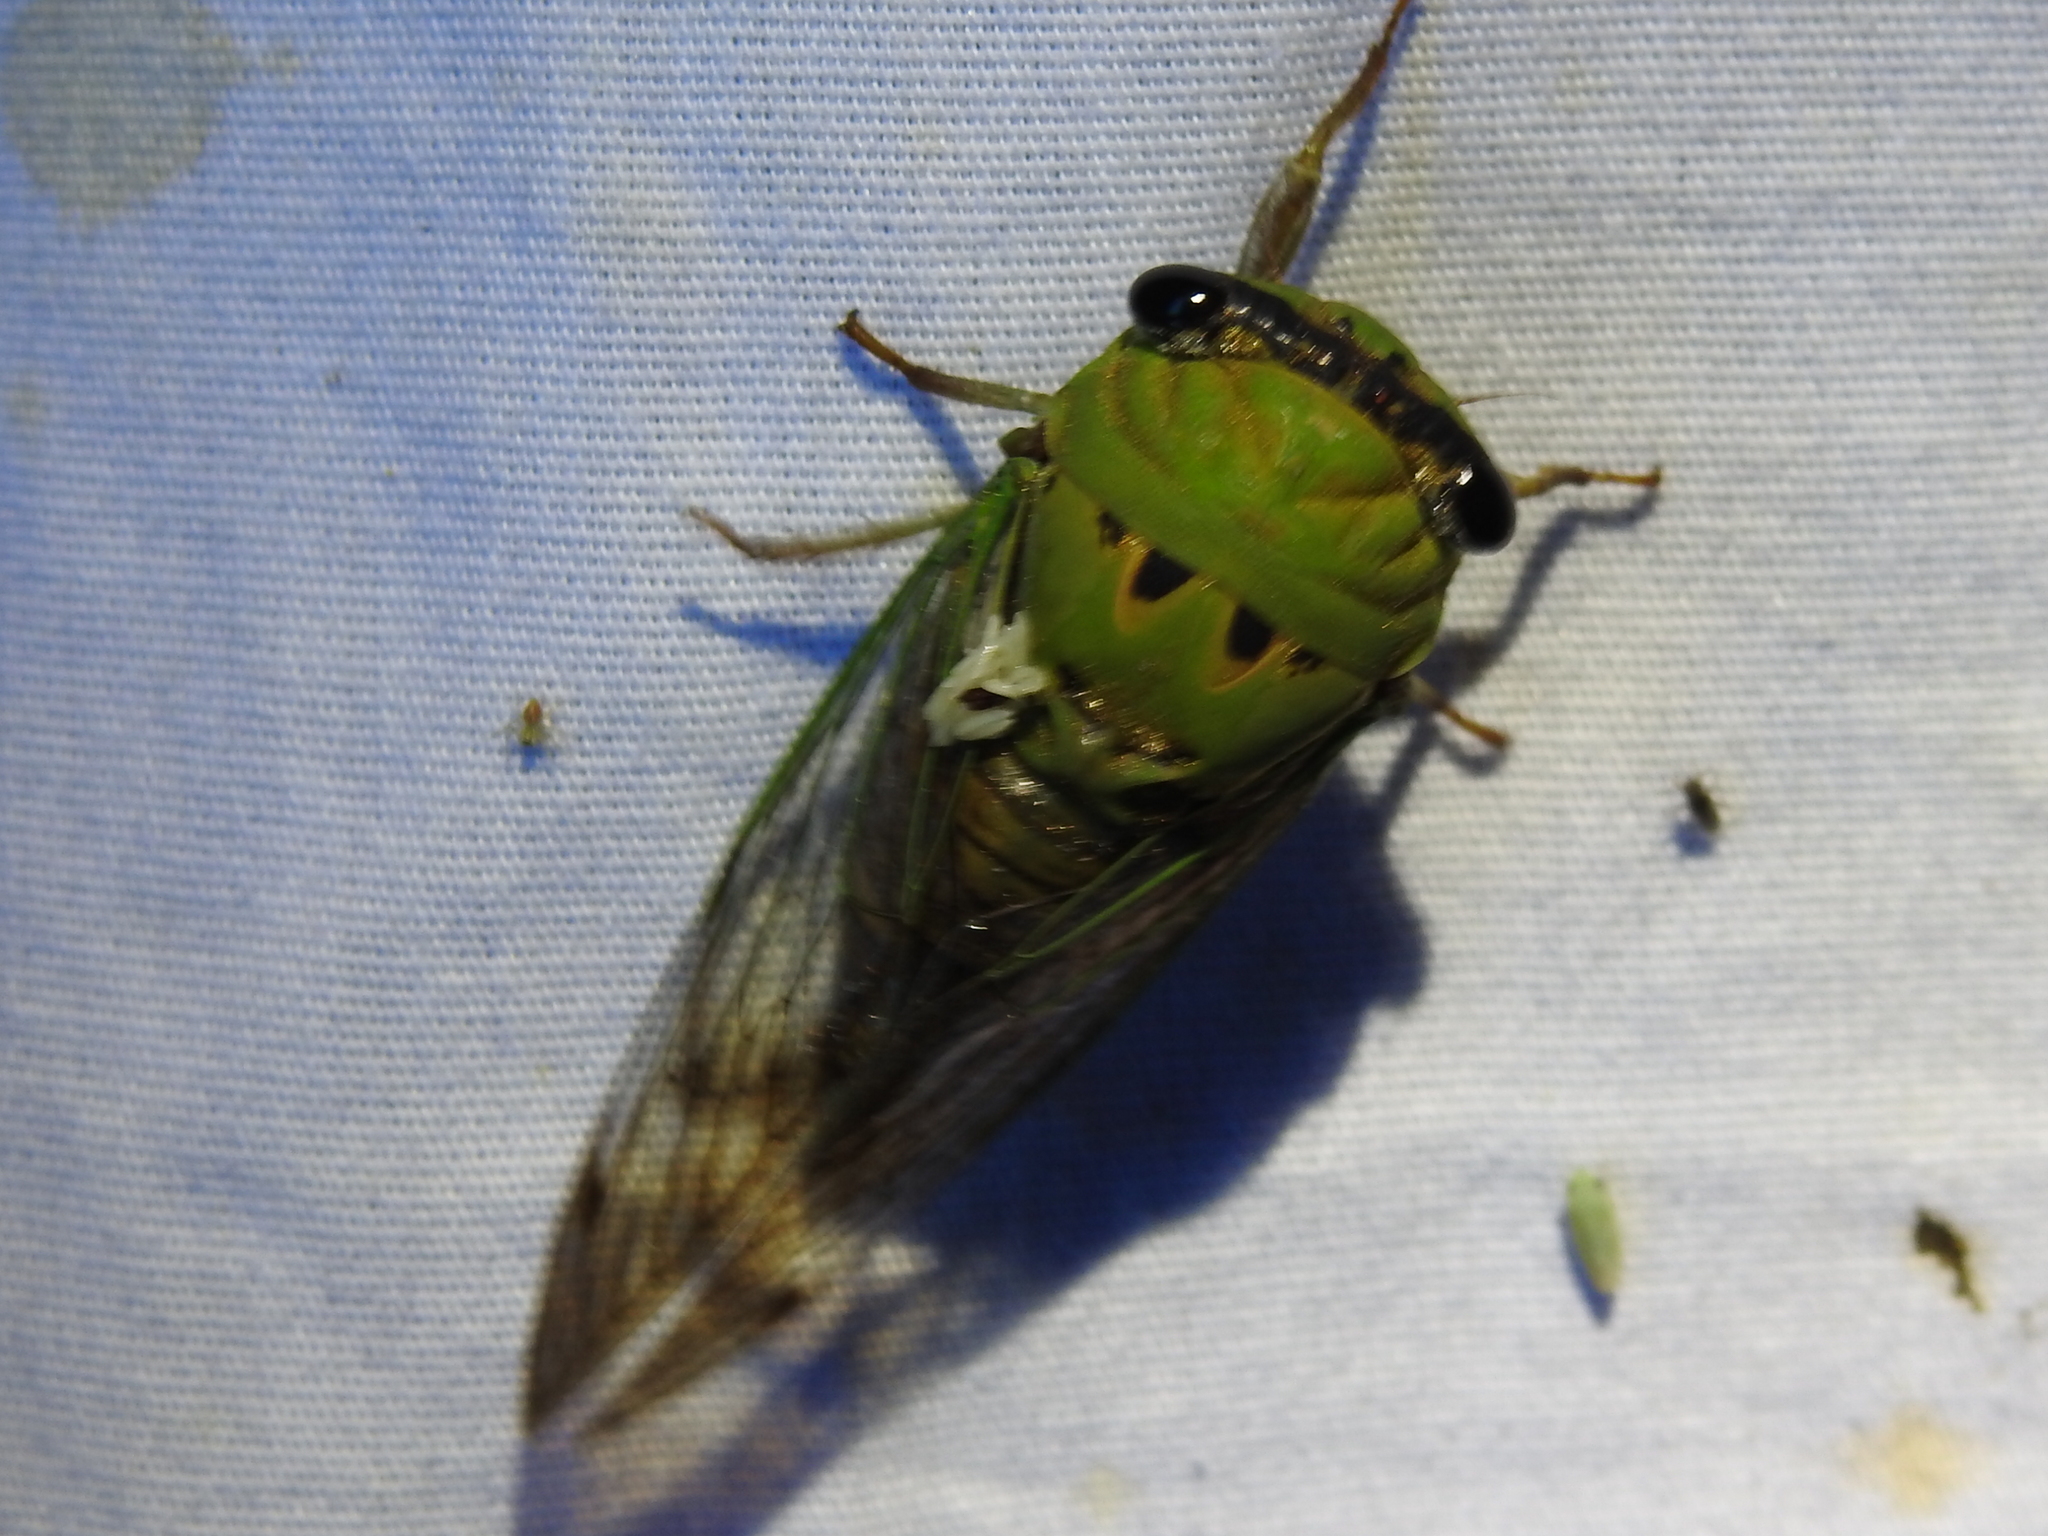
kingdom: Animalia
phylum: Arthropoda
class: Insecta
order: Hemiptera
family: Cicadidae
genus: Neotibicen
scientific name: Neotibicen superbus
